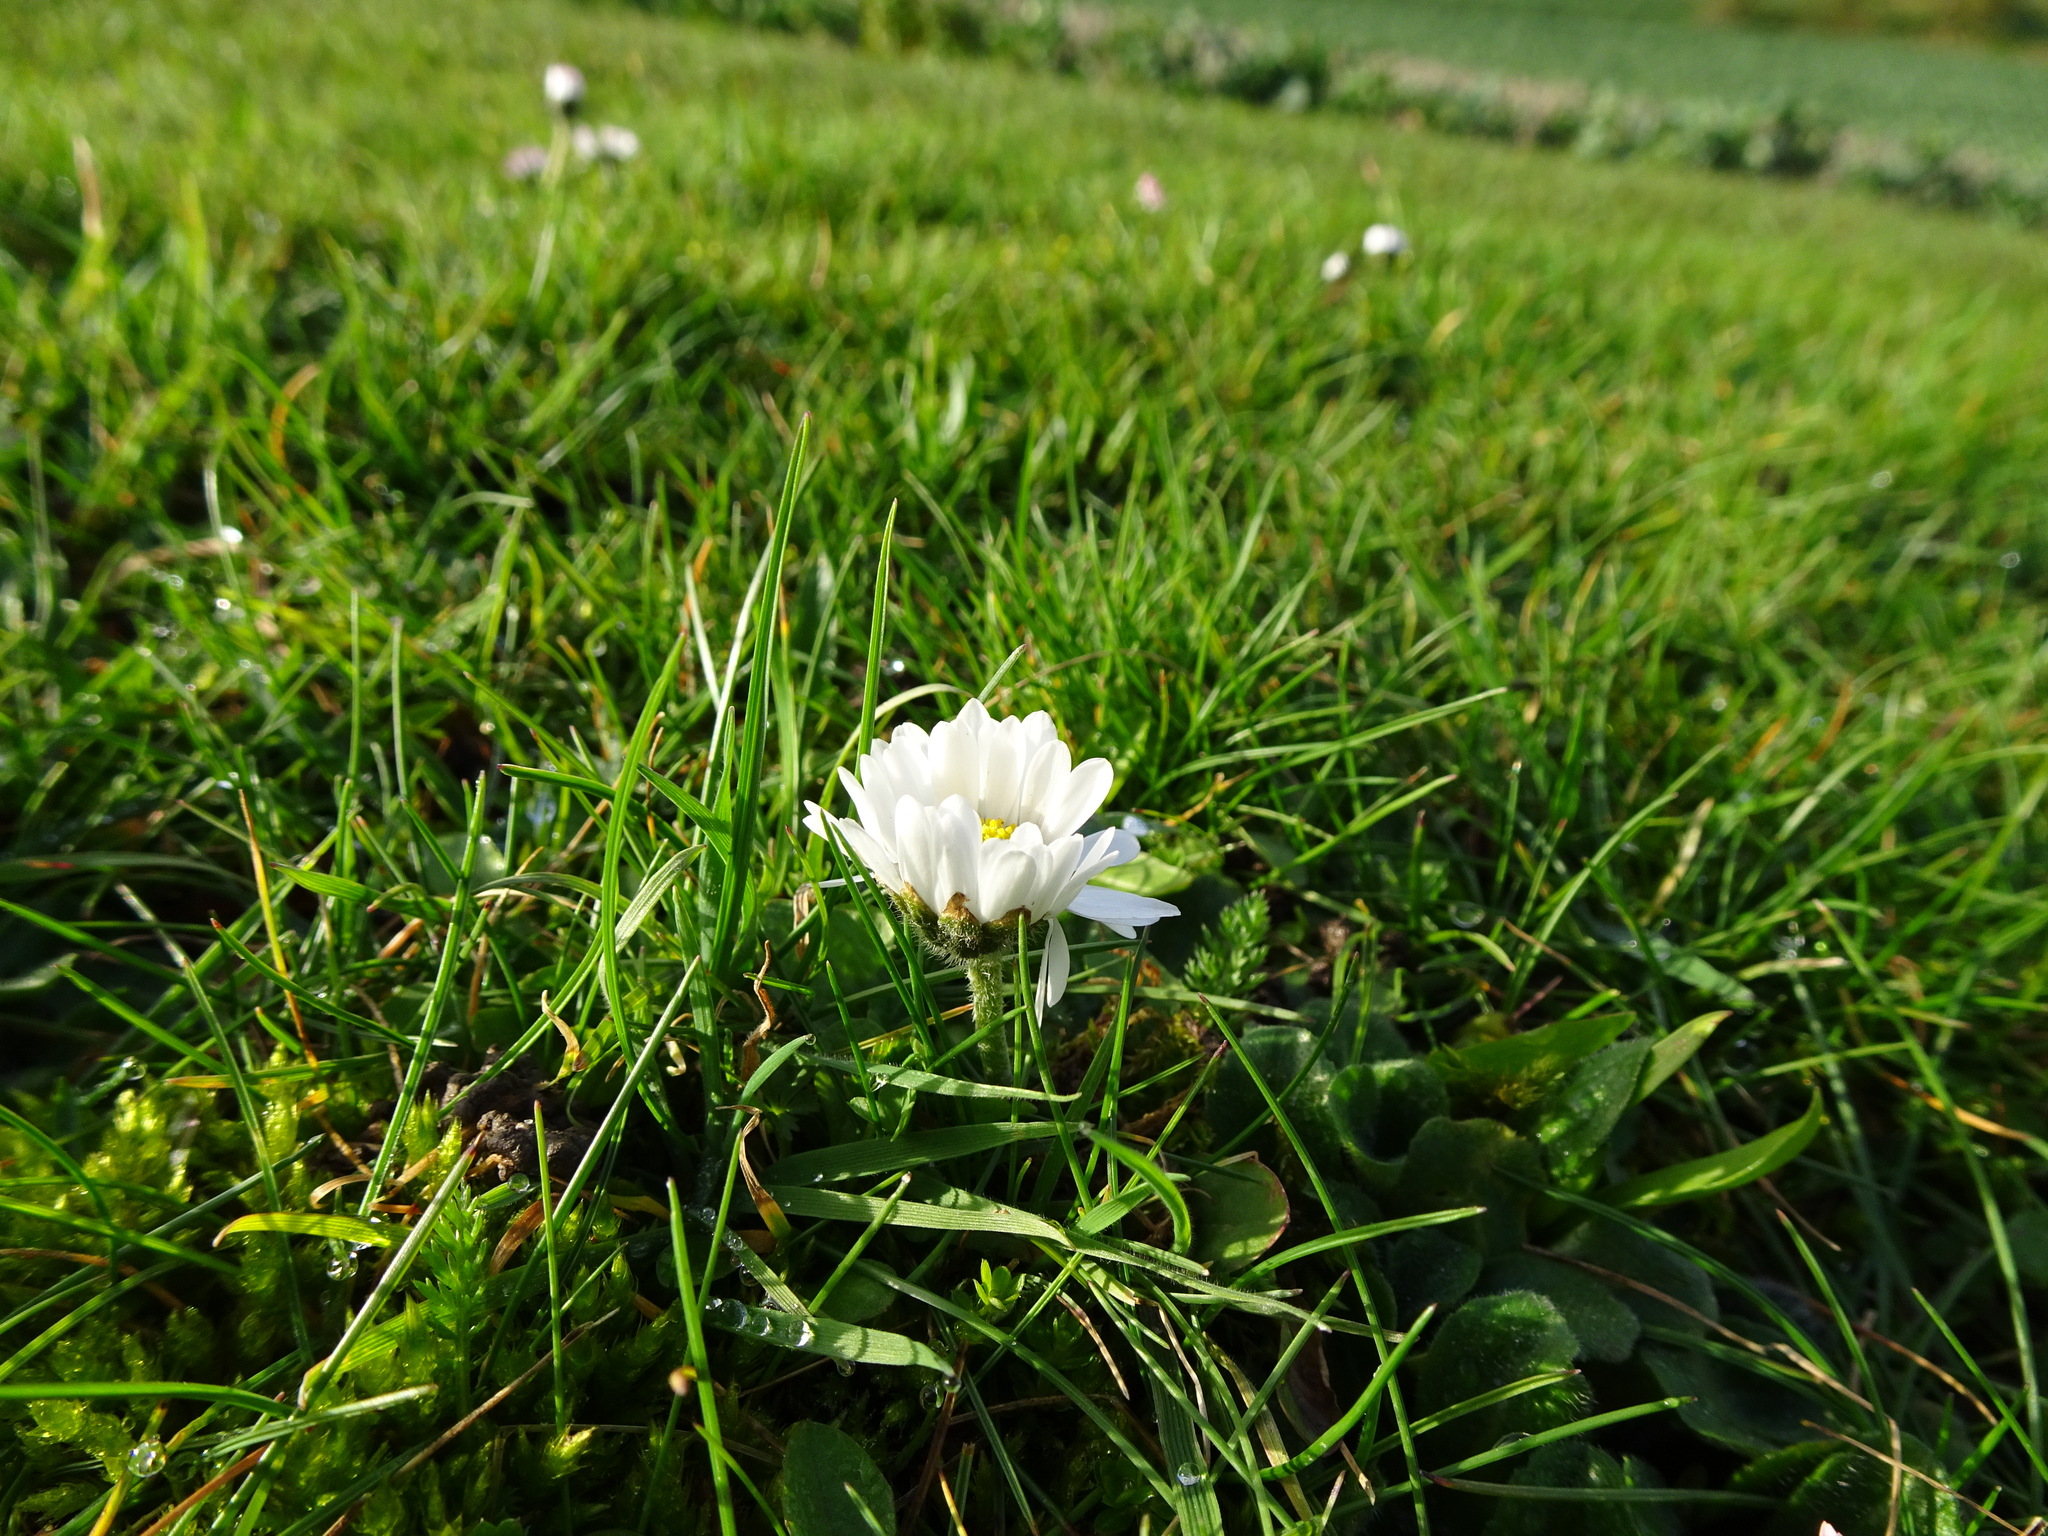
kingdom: Plantae
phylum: Tracheophyta
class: Magnoliopsida
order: Asterales
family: Asteraceae
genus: Bellis
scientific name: Bellis perennis
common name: Lawndaisy
